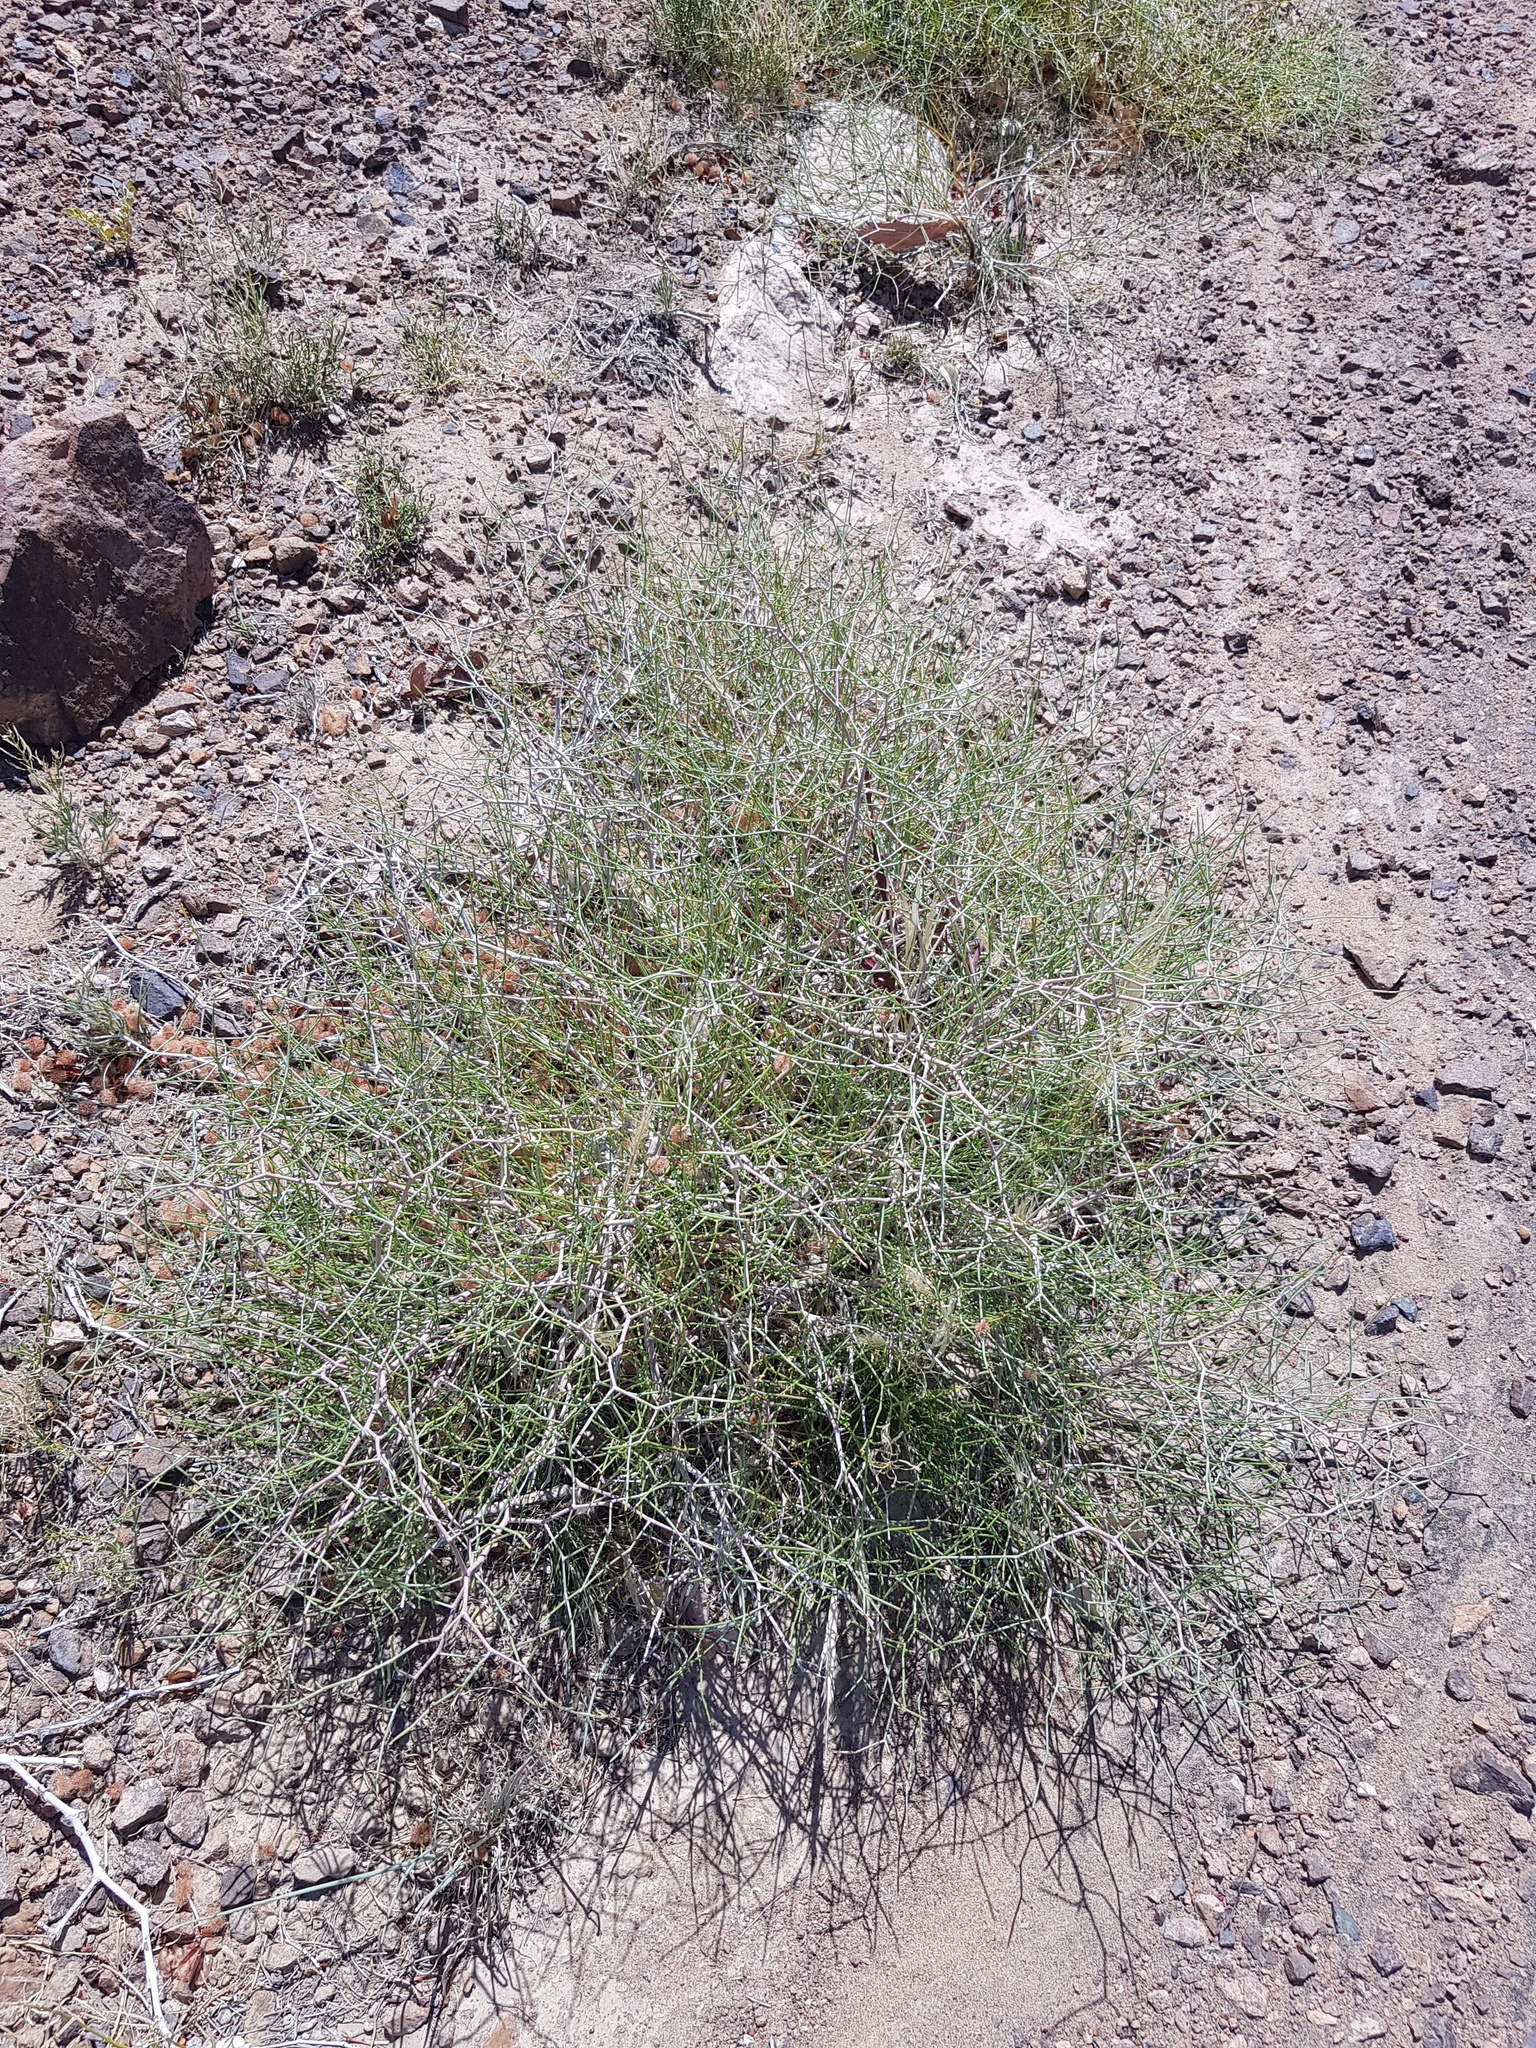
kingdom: Plantae
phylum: Tracheophyta
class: Magnoliopsida
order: Caryophyllales
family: Polygonaceae
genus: Calligonum
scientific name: Calligonum mongolicum
